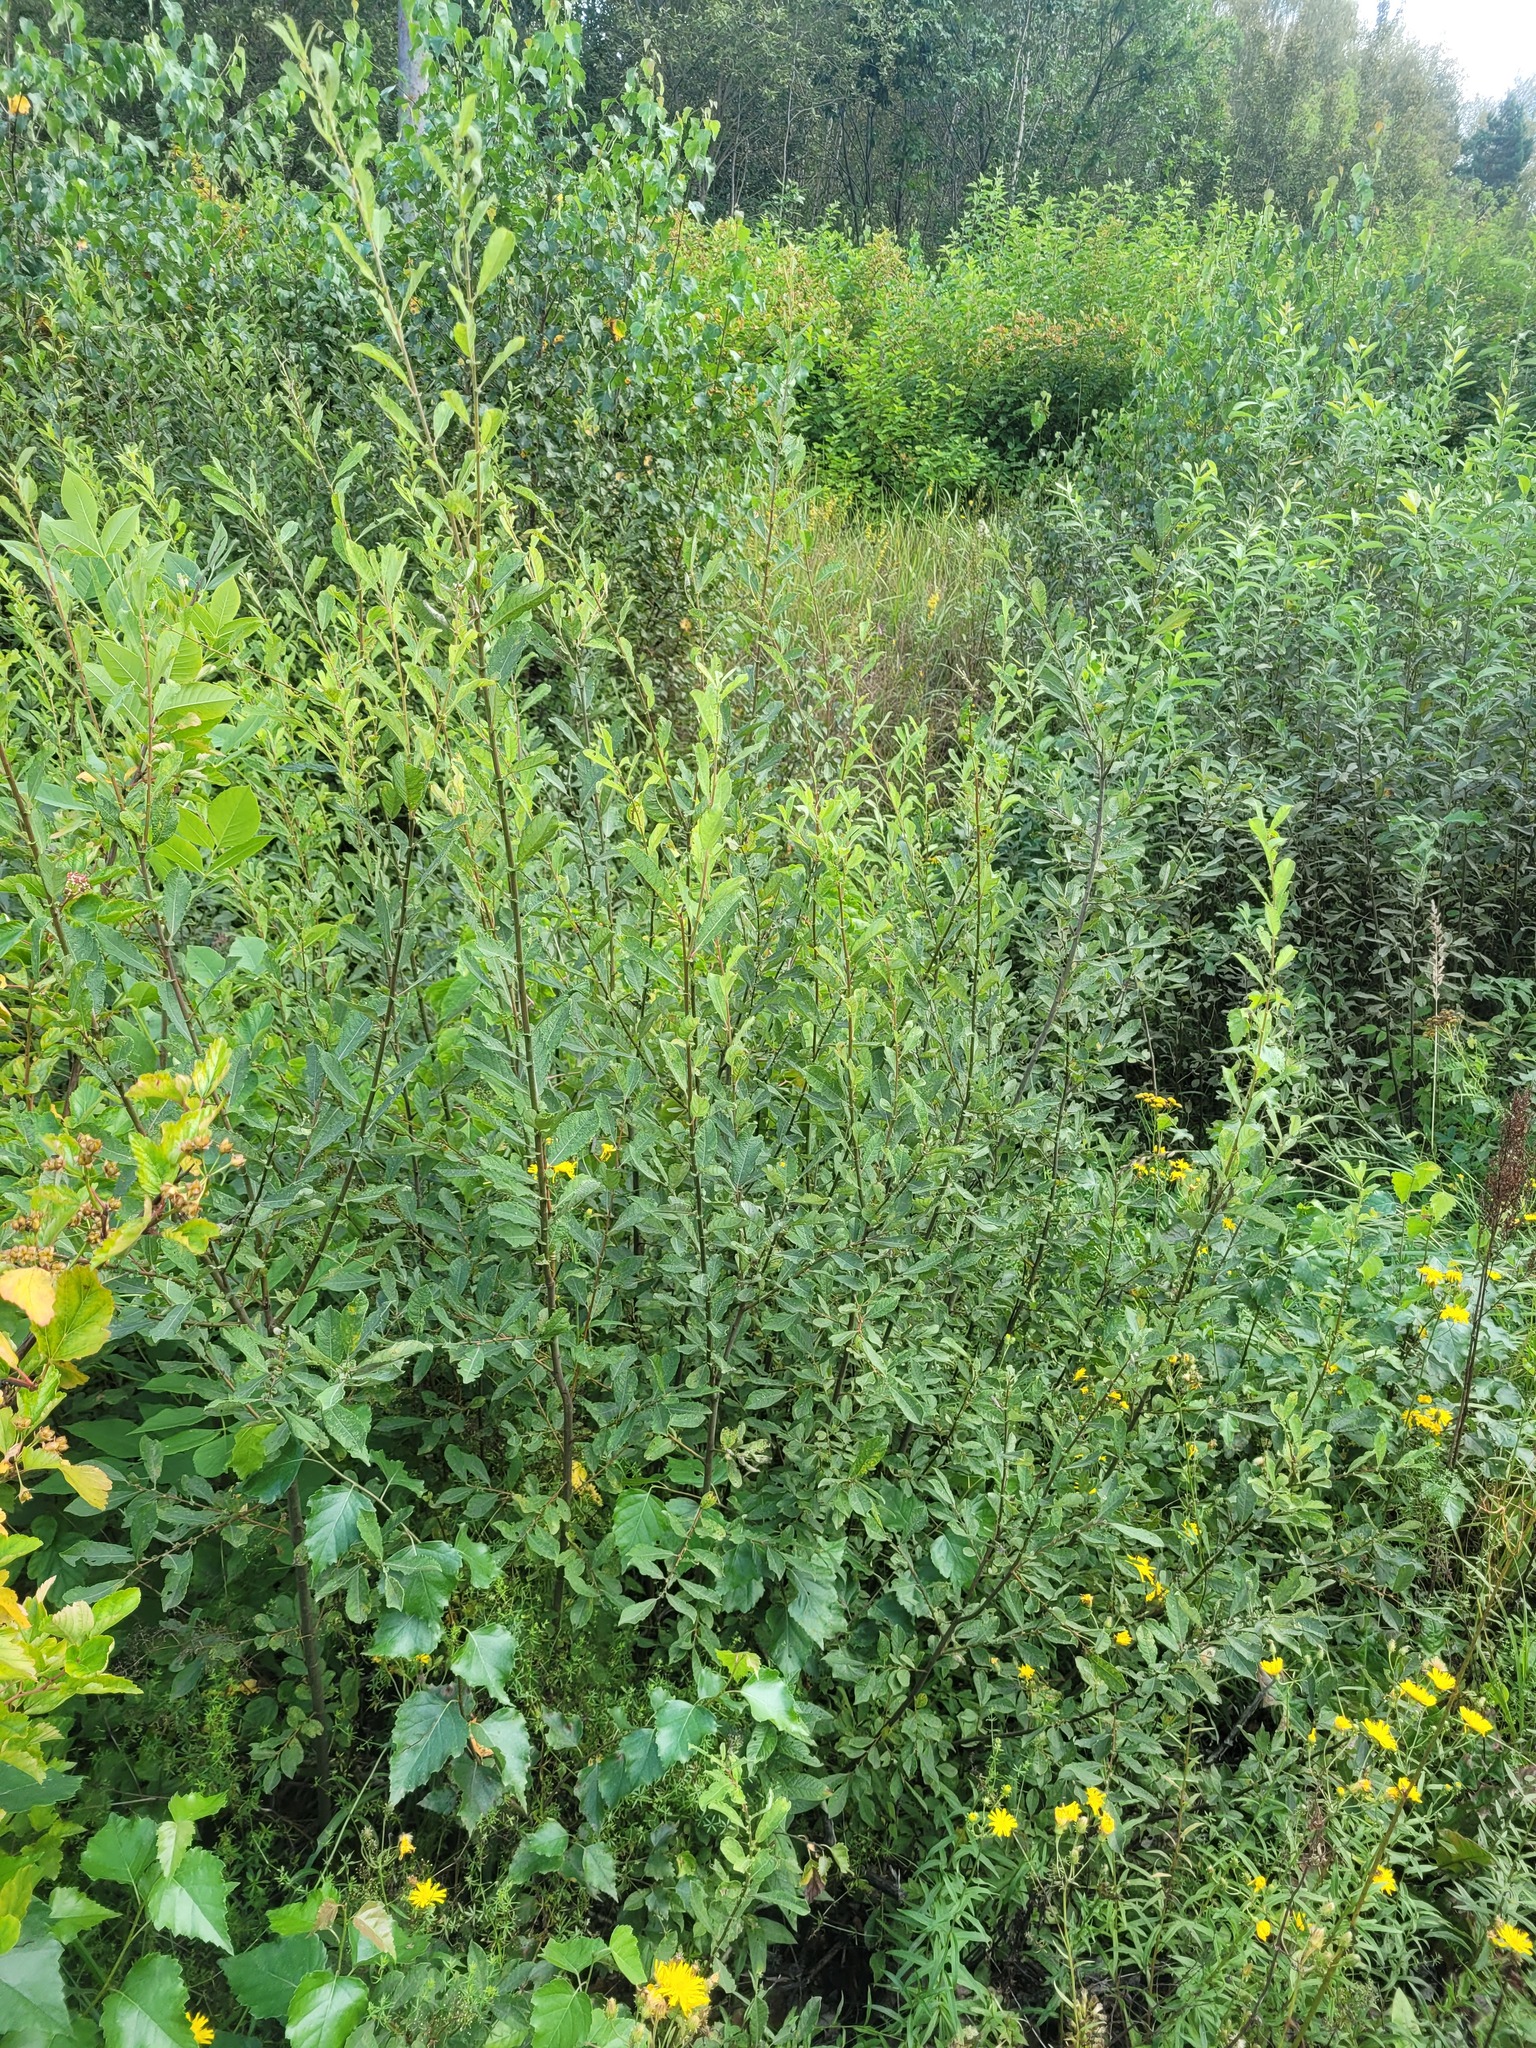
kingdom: Plantae
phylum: Tracheophyta
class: Magnoliopsida
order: Malpighiales
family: Salicaceae
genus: Salix
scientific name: Salix aurita
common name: Eared willow
